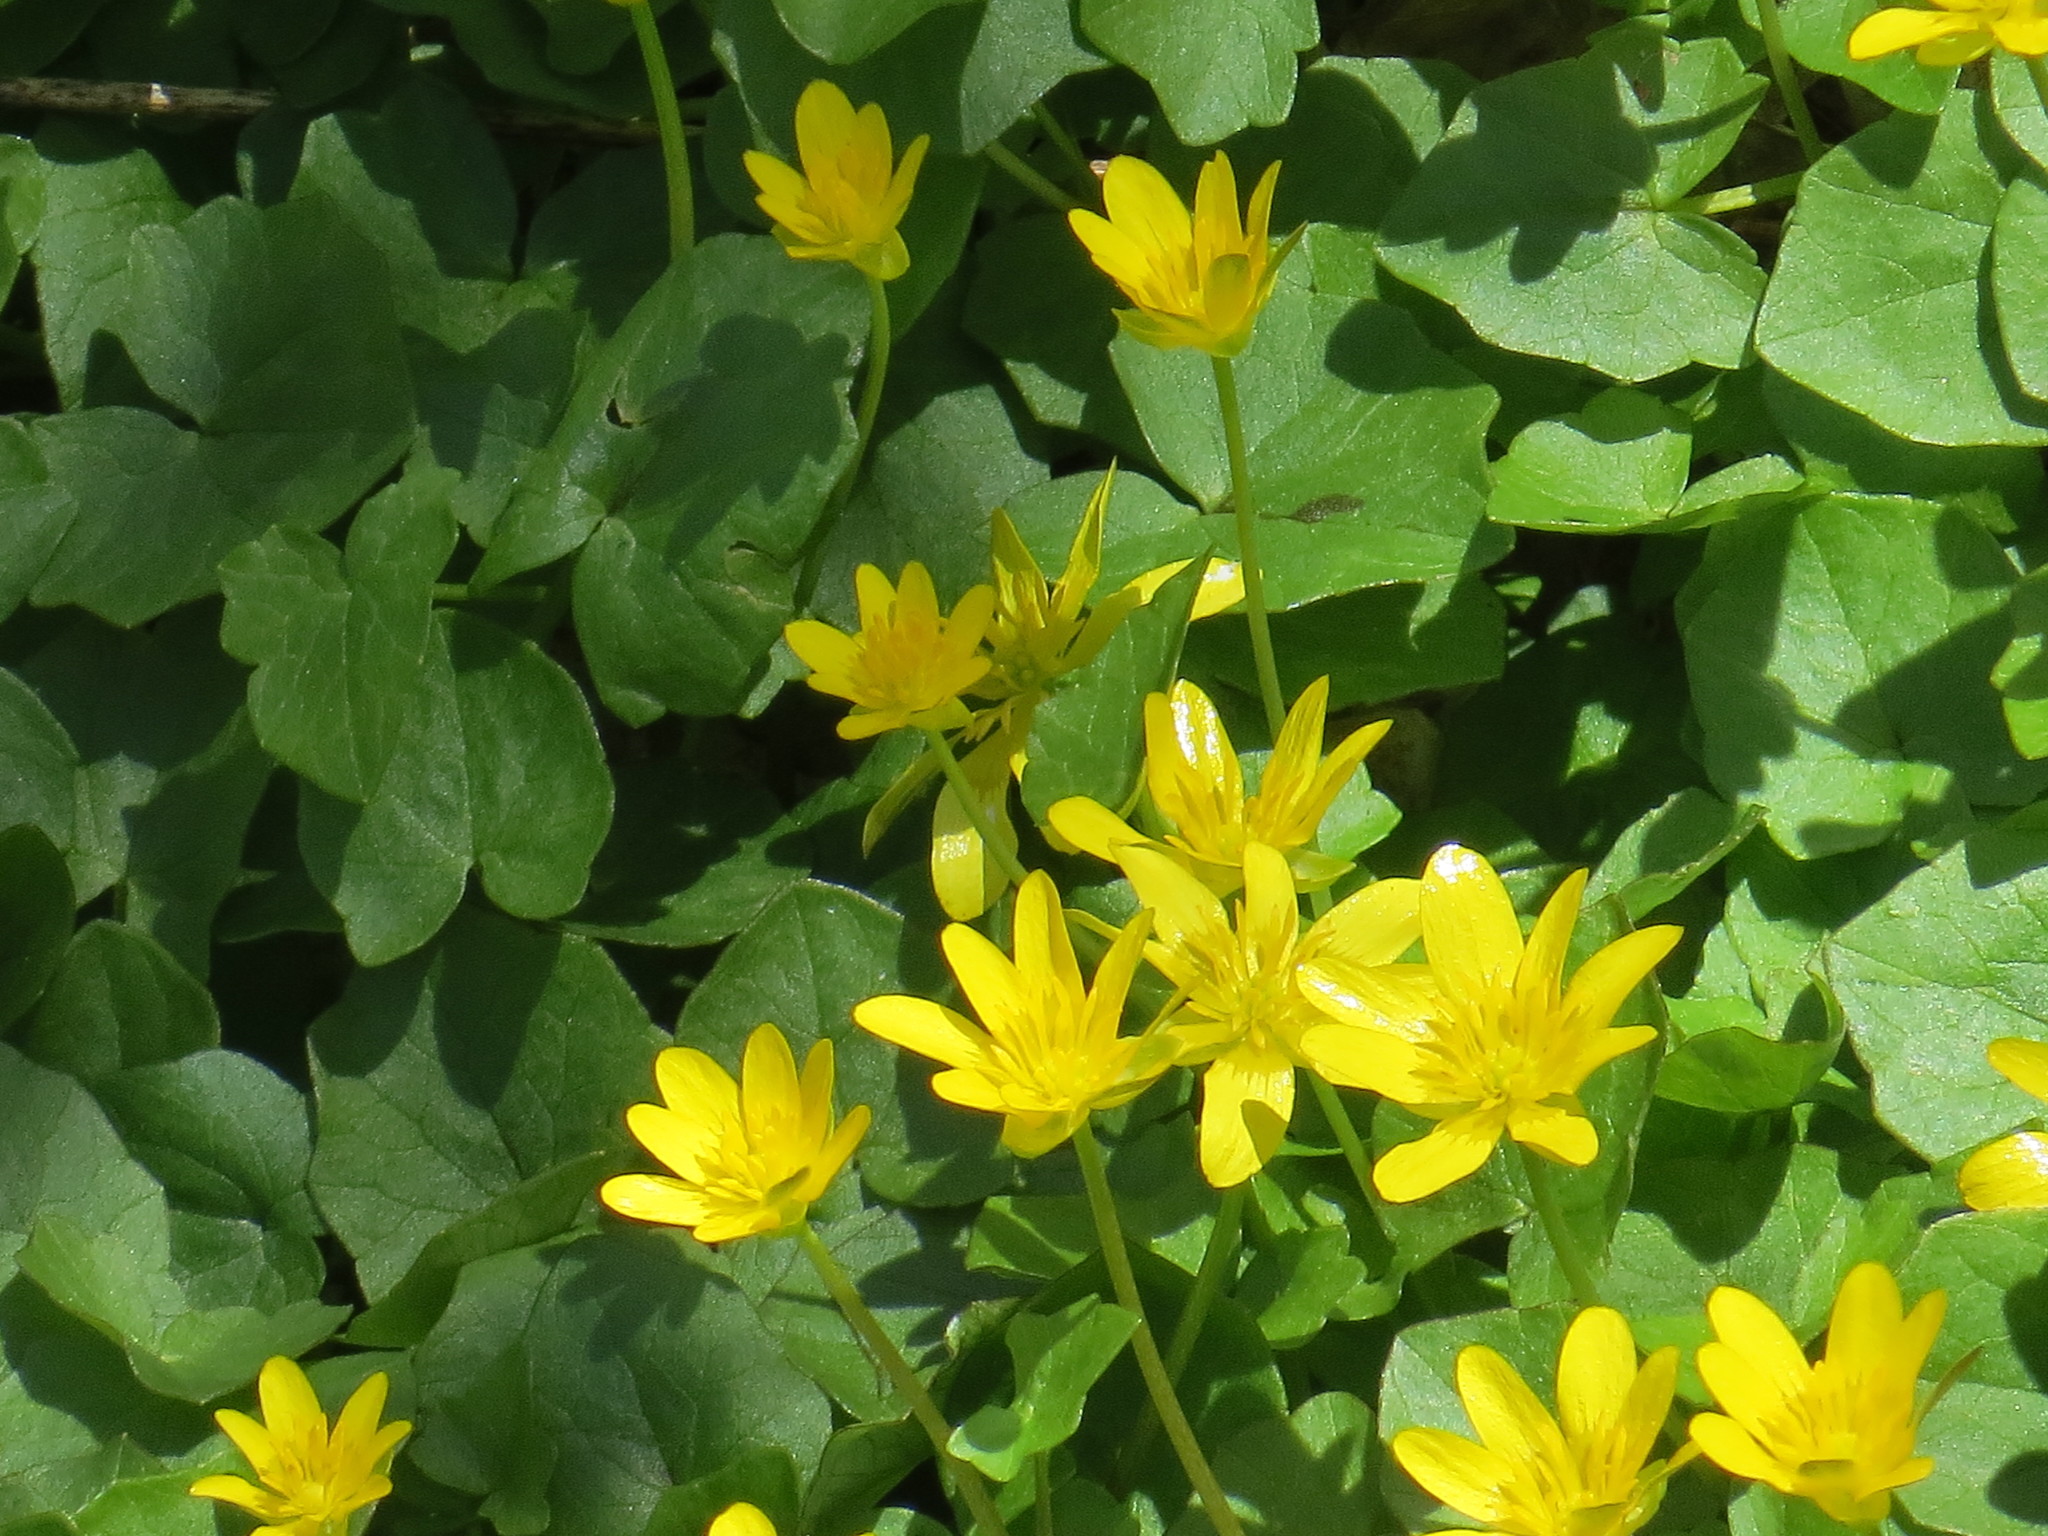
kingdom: Plantae
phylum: Tracheophyta
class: Magnoliopsida
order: Ranunculales
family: Ranunculaceae
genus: Ficaria
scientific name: Ficaria verna
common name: Lesser celandine
